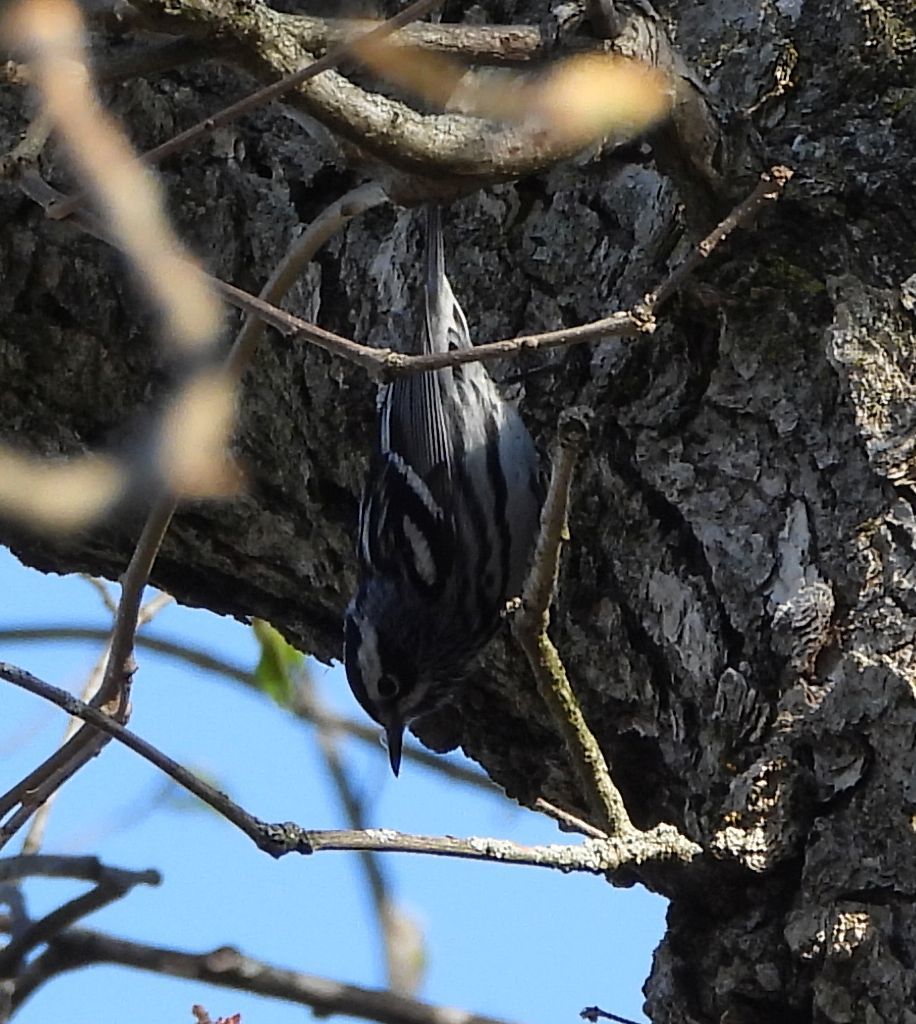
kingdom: Animalia
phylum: Chordata
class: Aves
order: Passeriformes
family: Parulidae
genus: Mniotilta
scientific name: Mniotilta varia
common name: Black-and-white warbler
